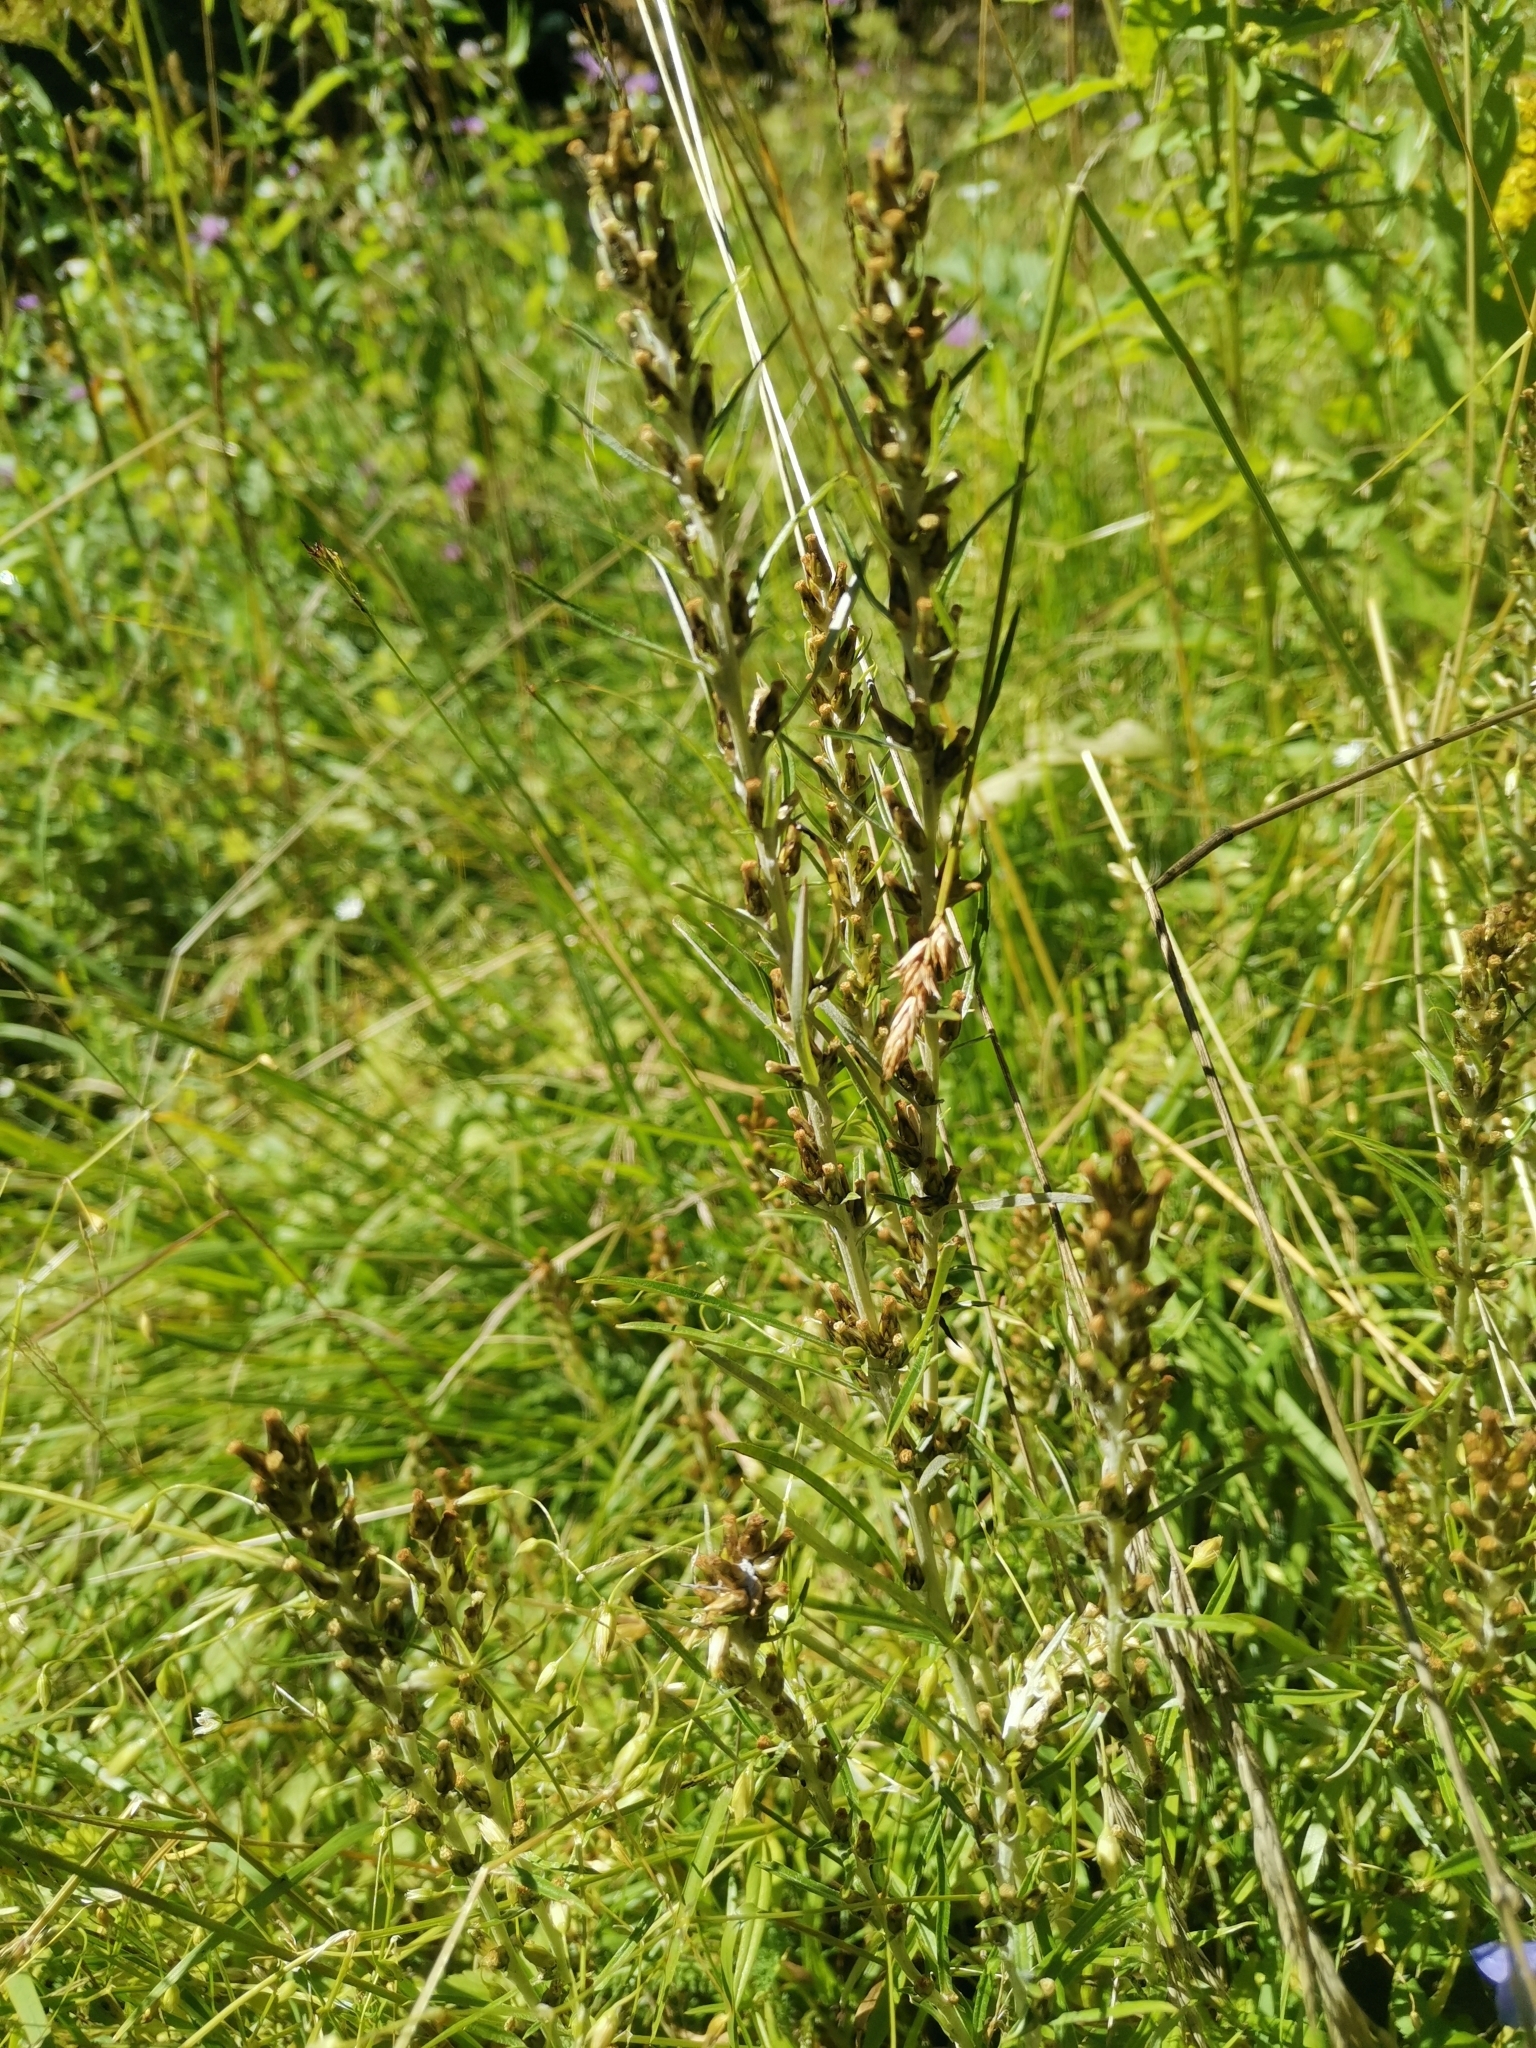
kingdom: Plantae
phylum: Tracheophyta
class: Magnoliopsida
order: Asterales
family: Asteraceae
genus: Omalotheca
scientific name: Omalotheca sylvatica
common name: Heath cudweed
